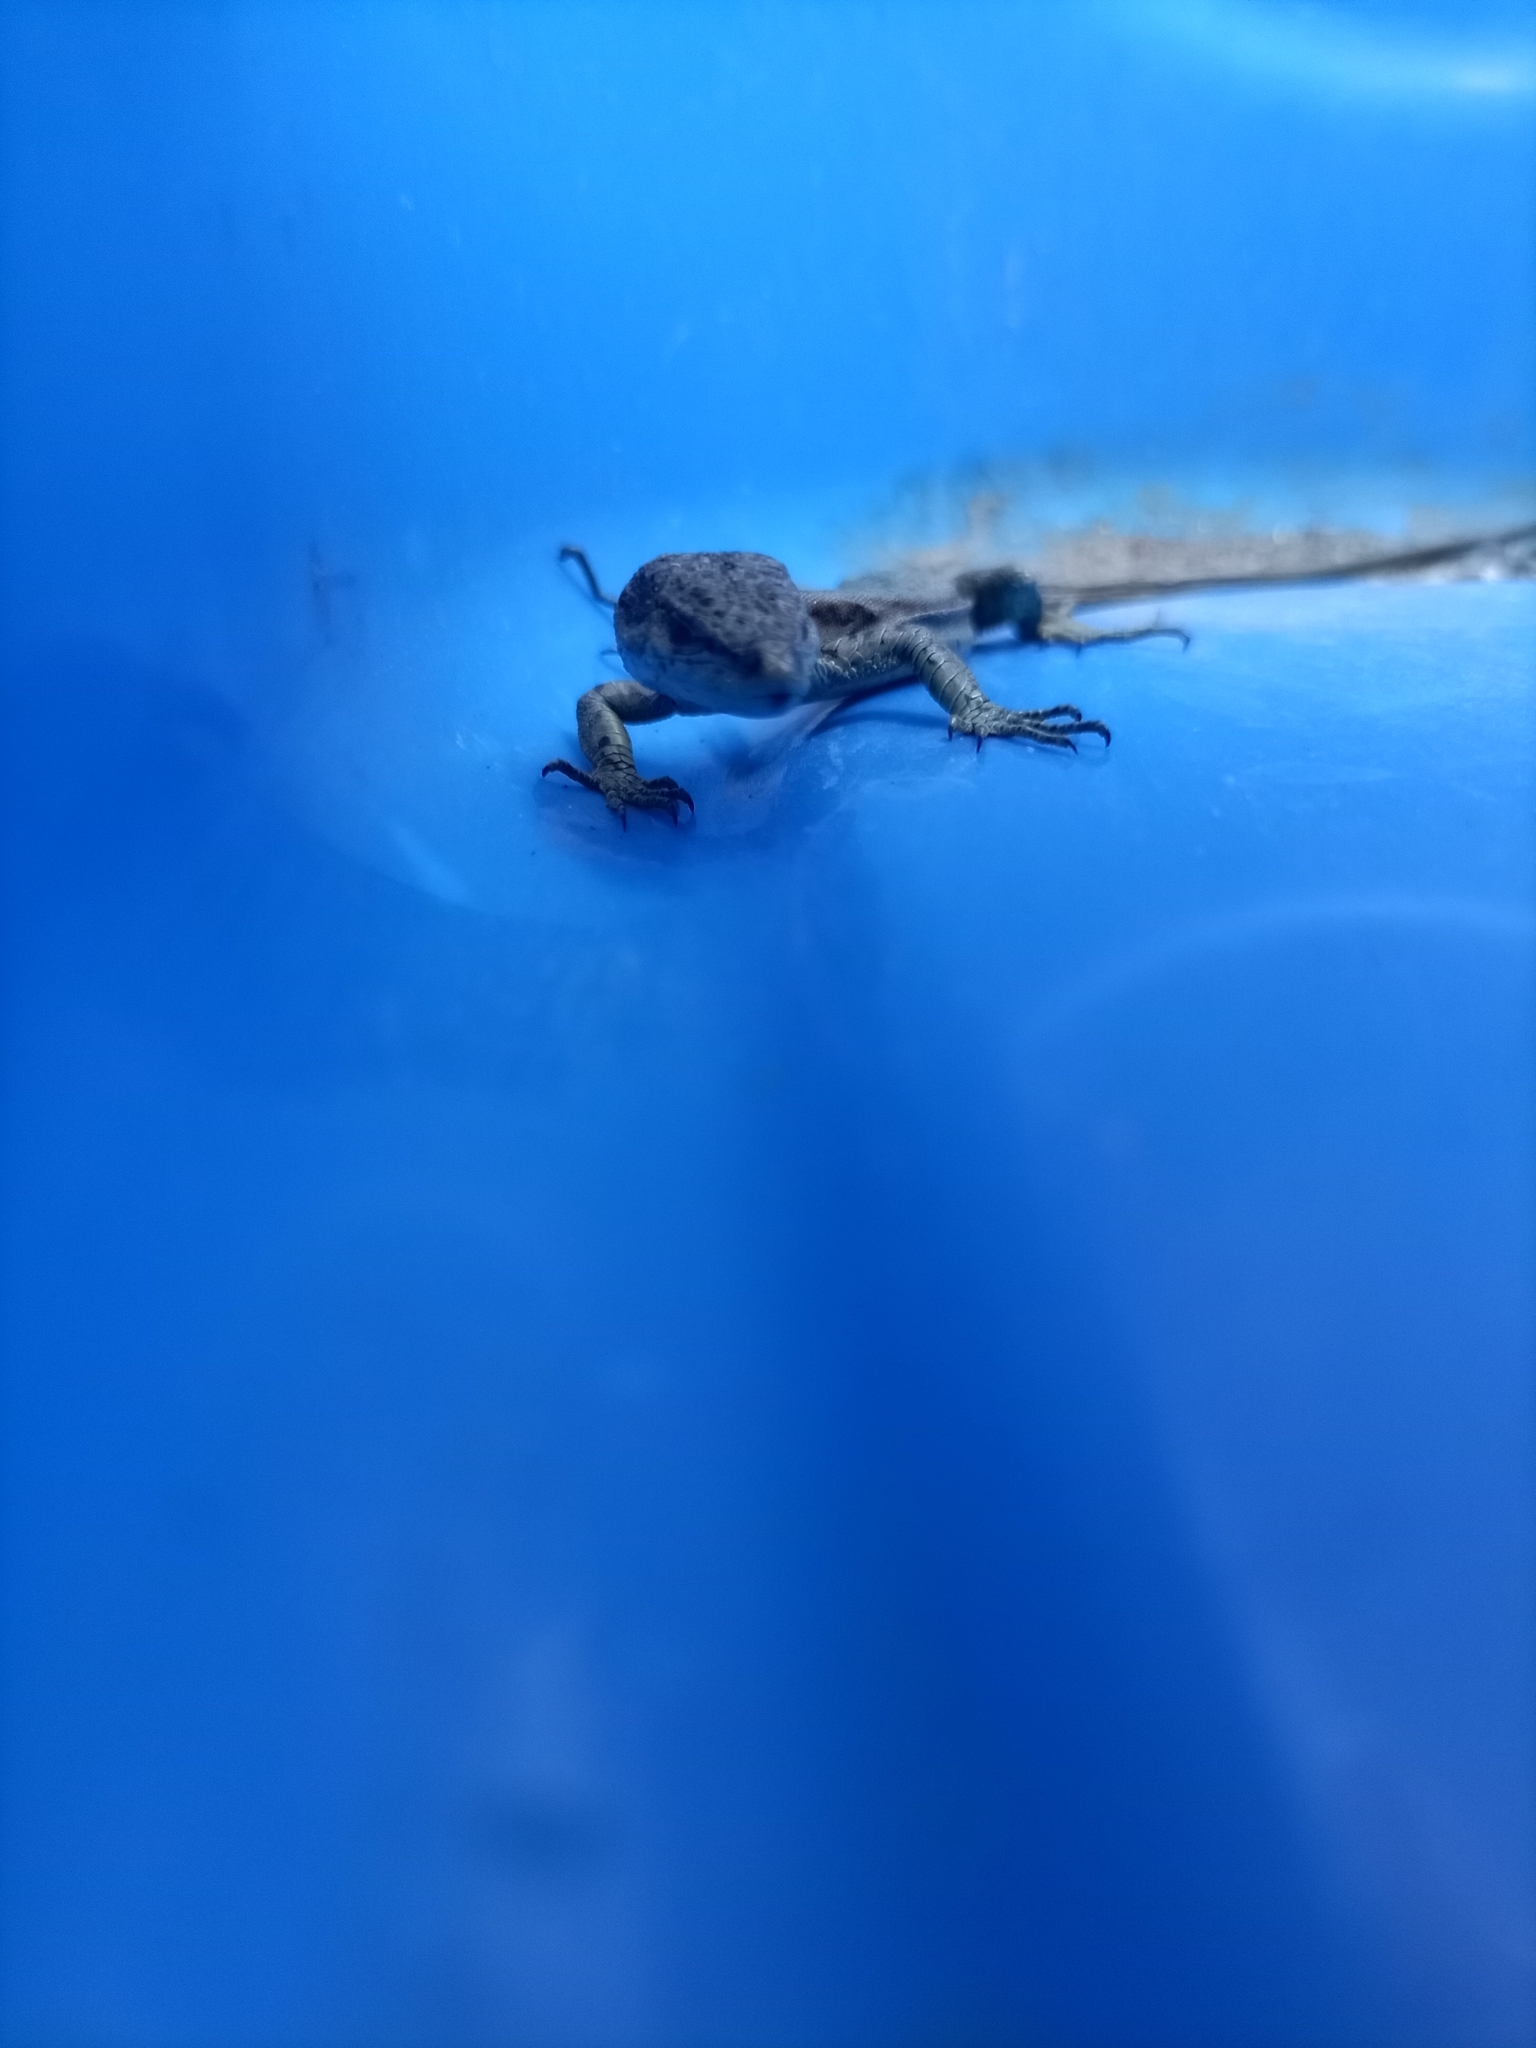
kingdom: Animalia
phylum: Chordata
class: Squamata
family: Lacertidae
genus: Podarcis
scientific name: Podarcis virescens
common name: Geniez’s wall lizard
